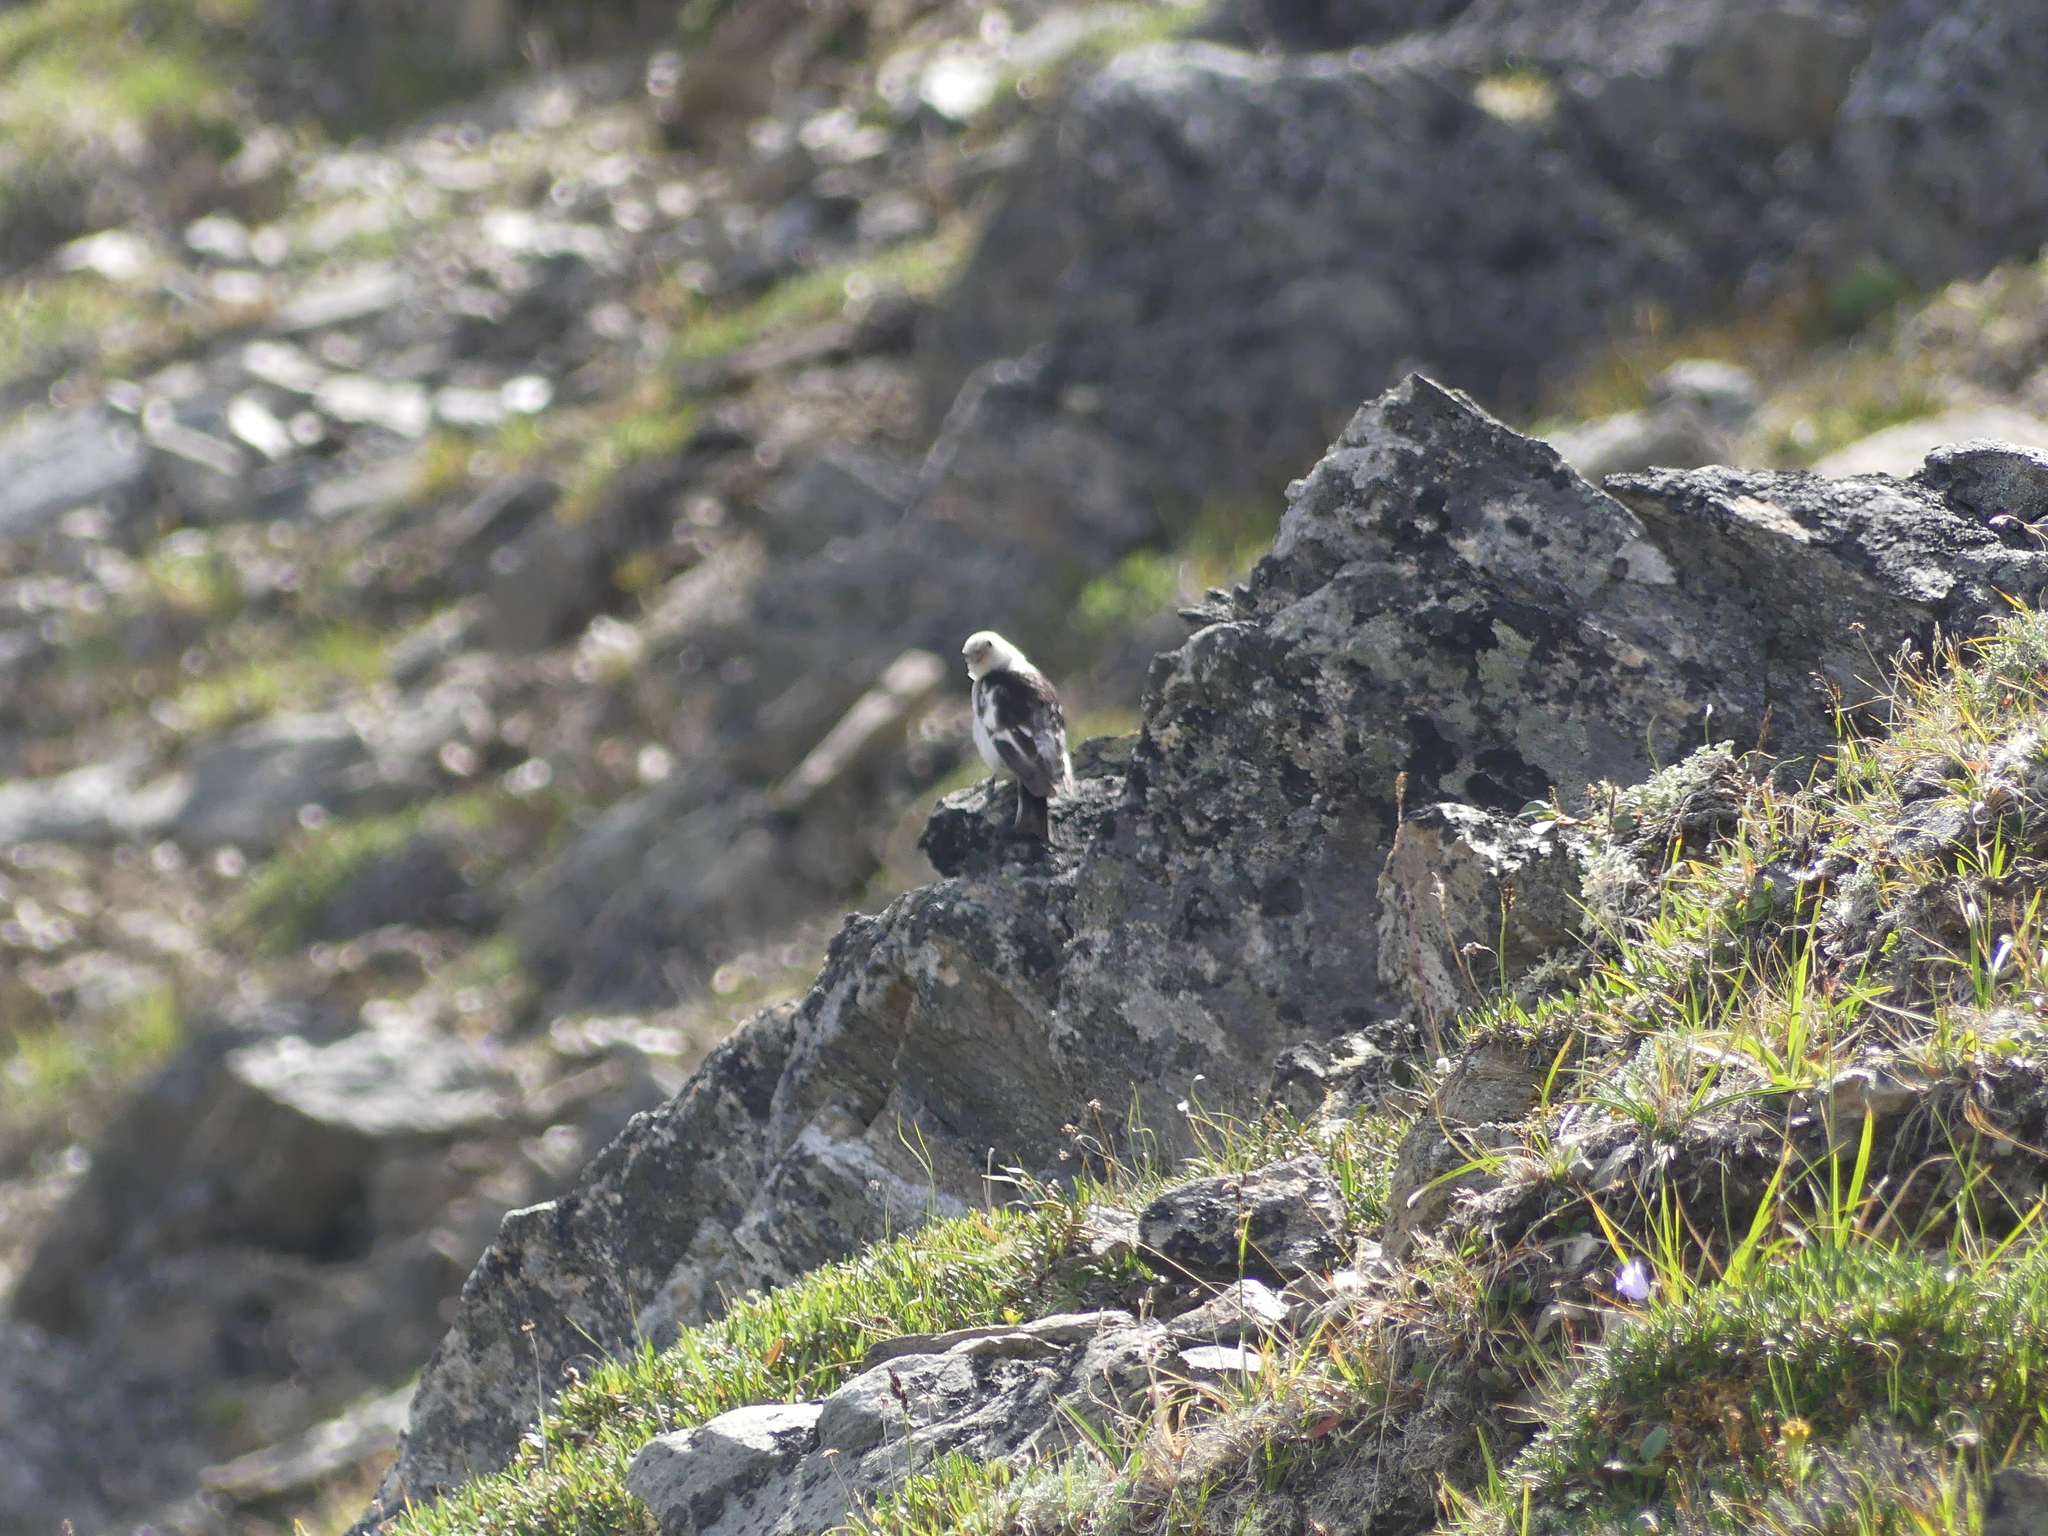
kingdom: Animalia
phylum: Chordata
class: Aves
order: Passeriformes
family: Calcariidae
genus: Plectrophenax
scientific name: Plectrophenax nivalis
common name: Snow bunting
